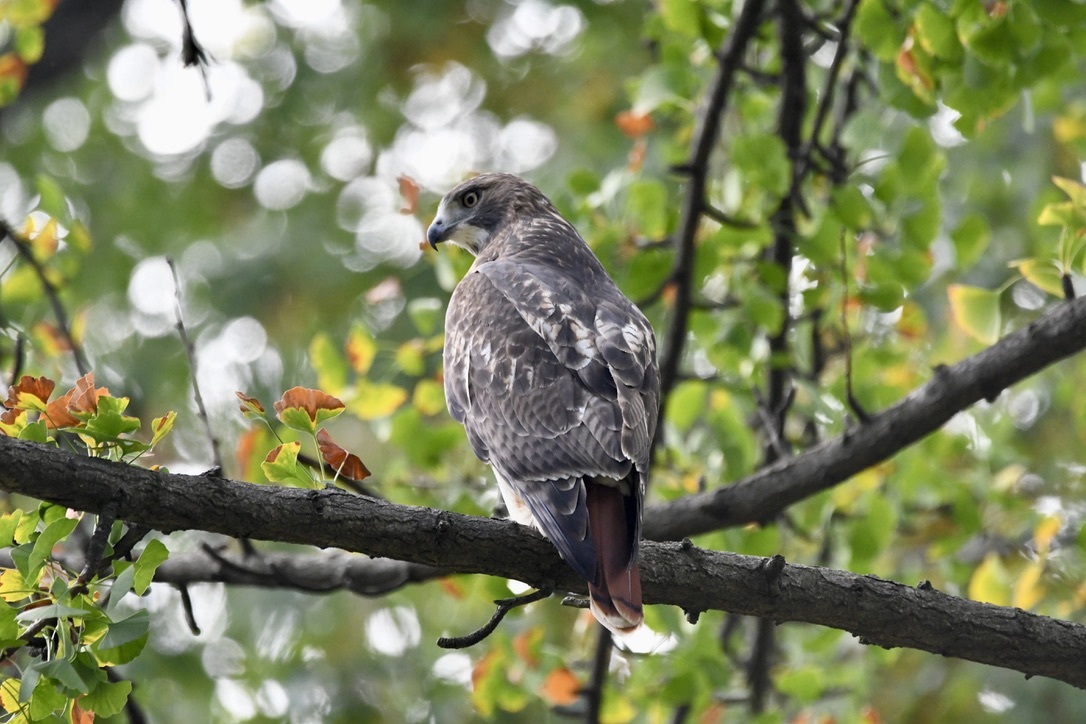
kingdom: Animalia
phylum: Chordata
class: Aves
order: Accipitriformes
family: Accipitridae
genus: Buteo
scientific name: Buteo jamaicensis
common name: Red-tailed hawk
